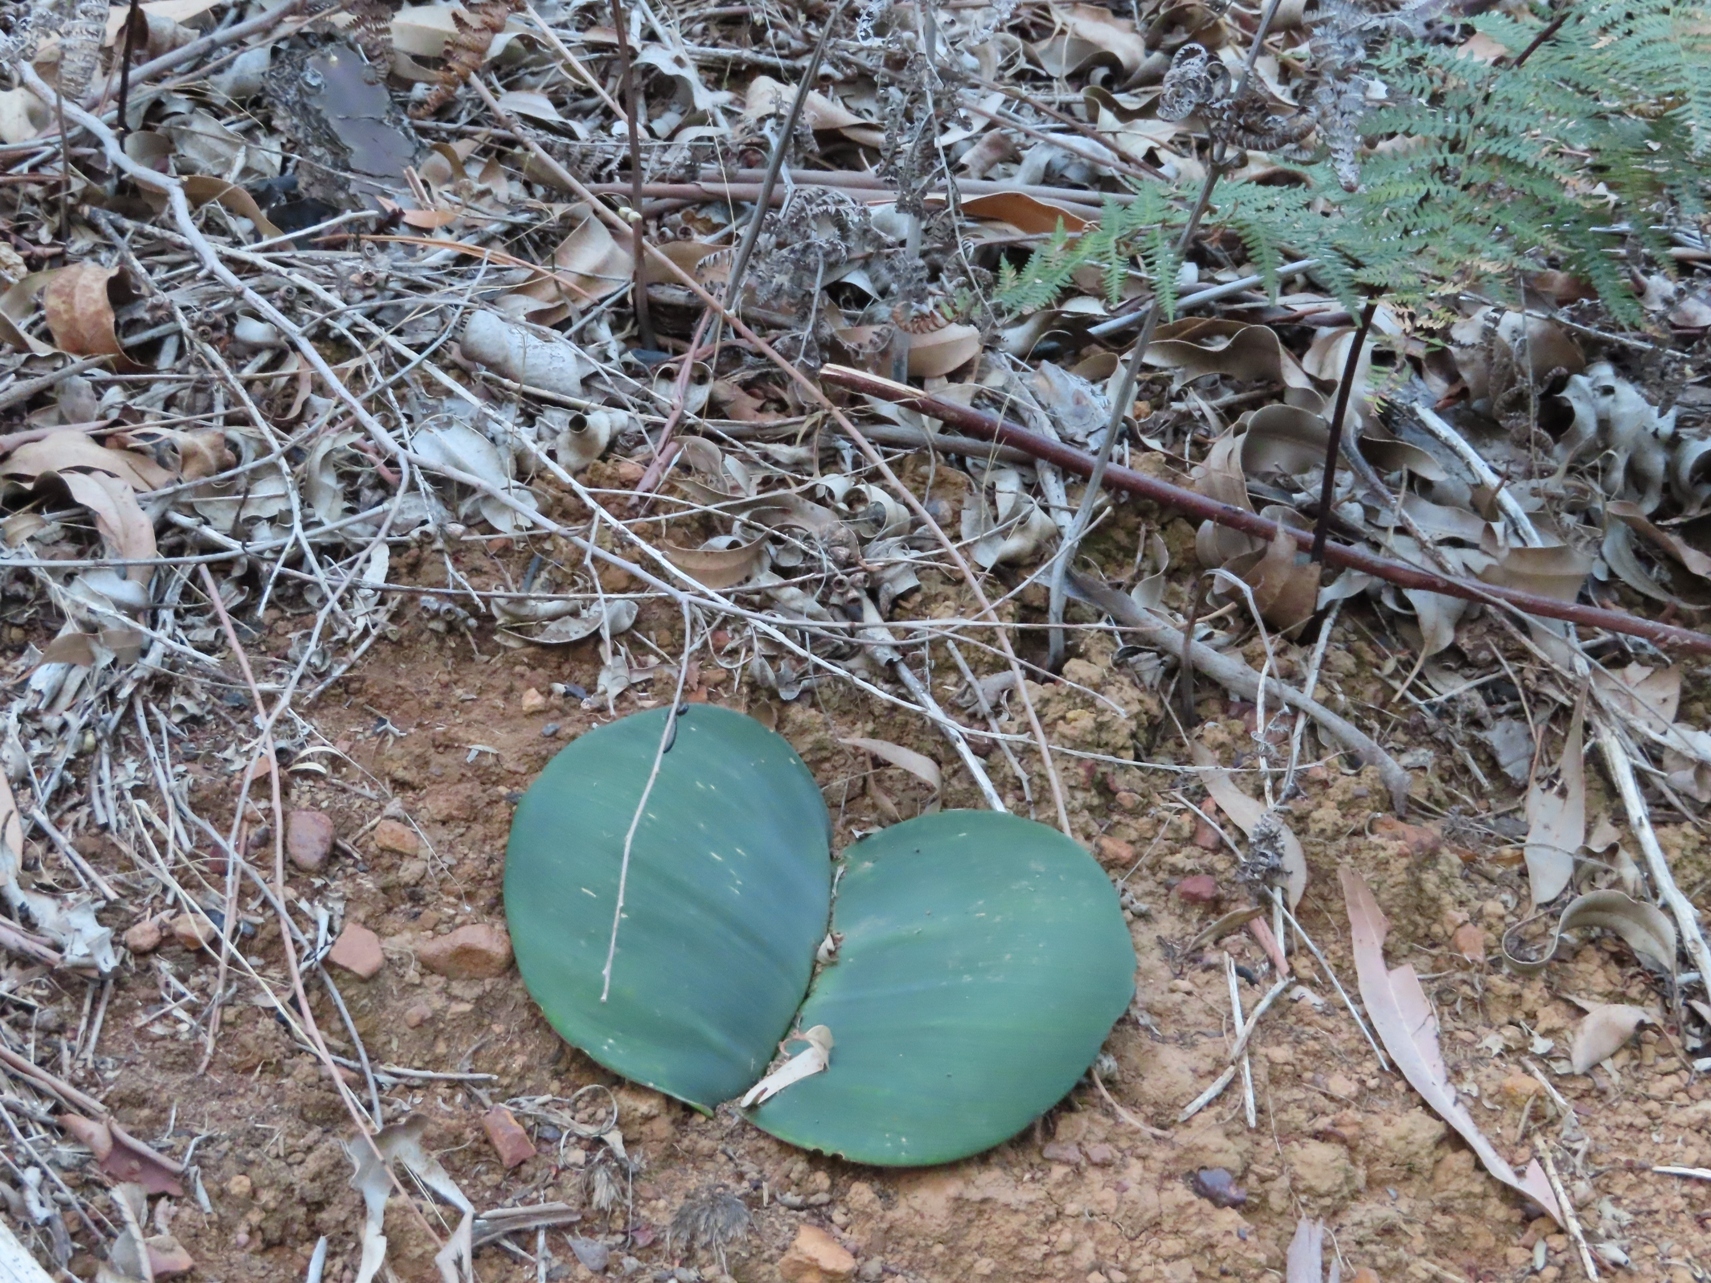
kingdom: Plantae
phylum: Tracheophyta
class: Liliopsida
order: Asparagales
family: Amaryllidaceae
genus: Haemanthus
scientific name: Haemanthus sanguineus
